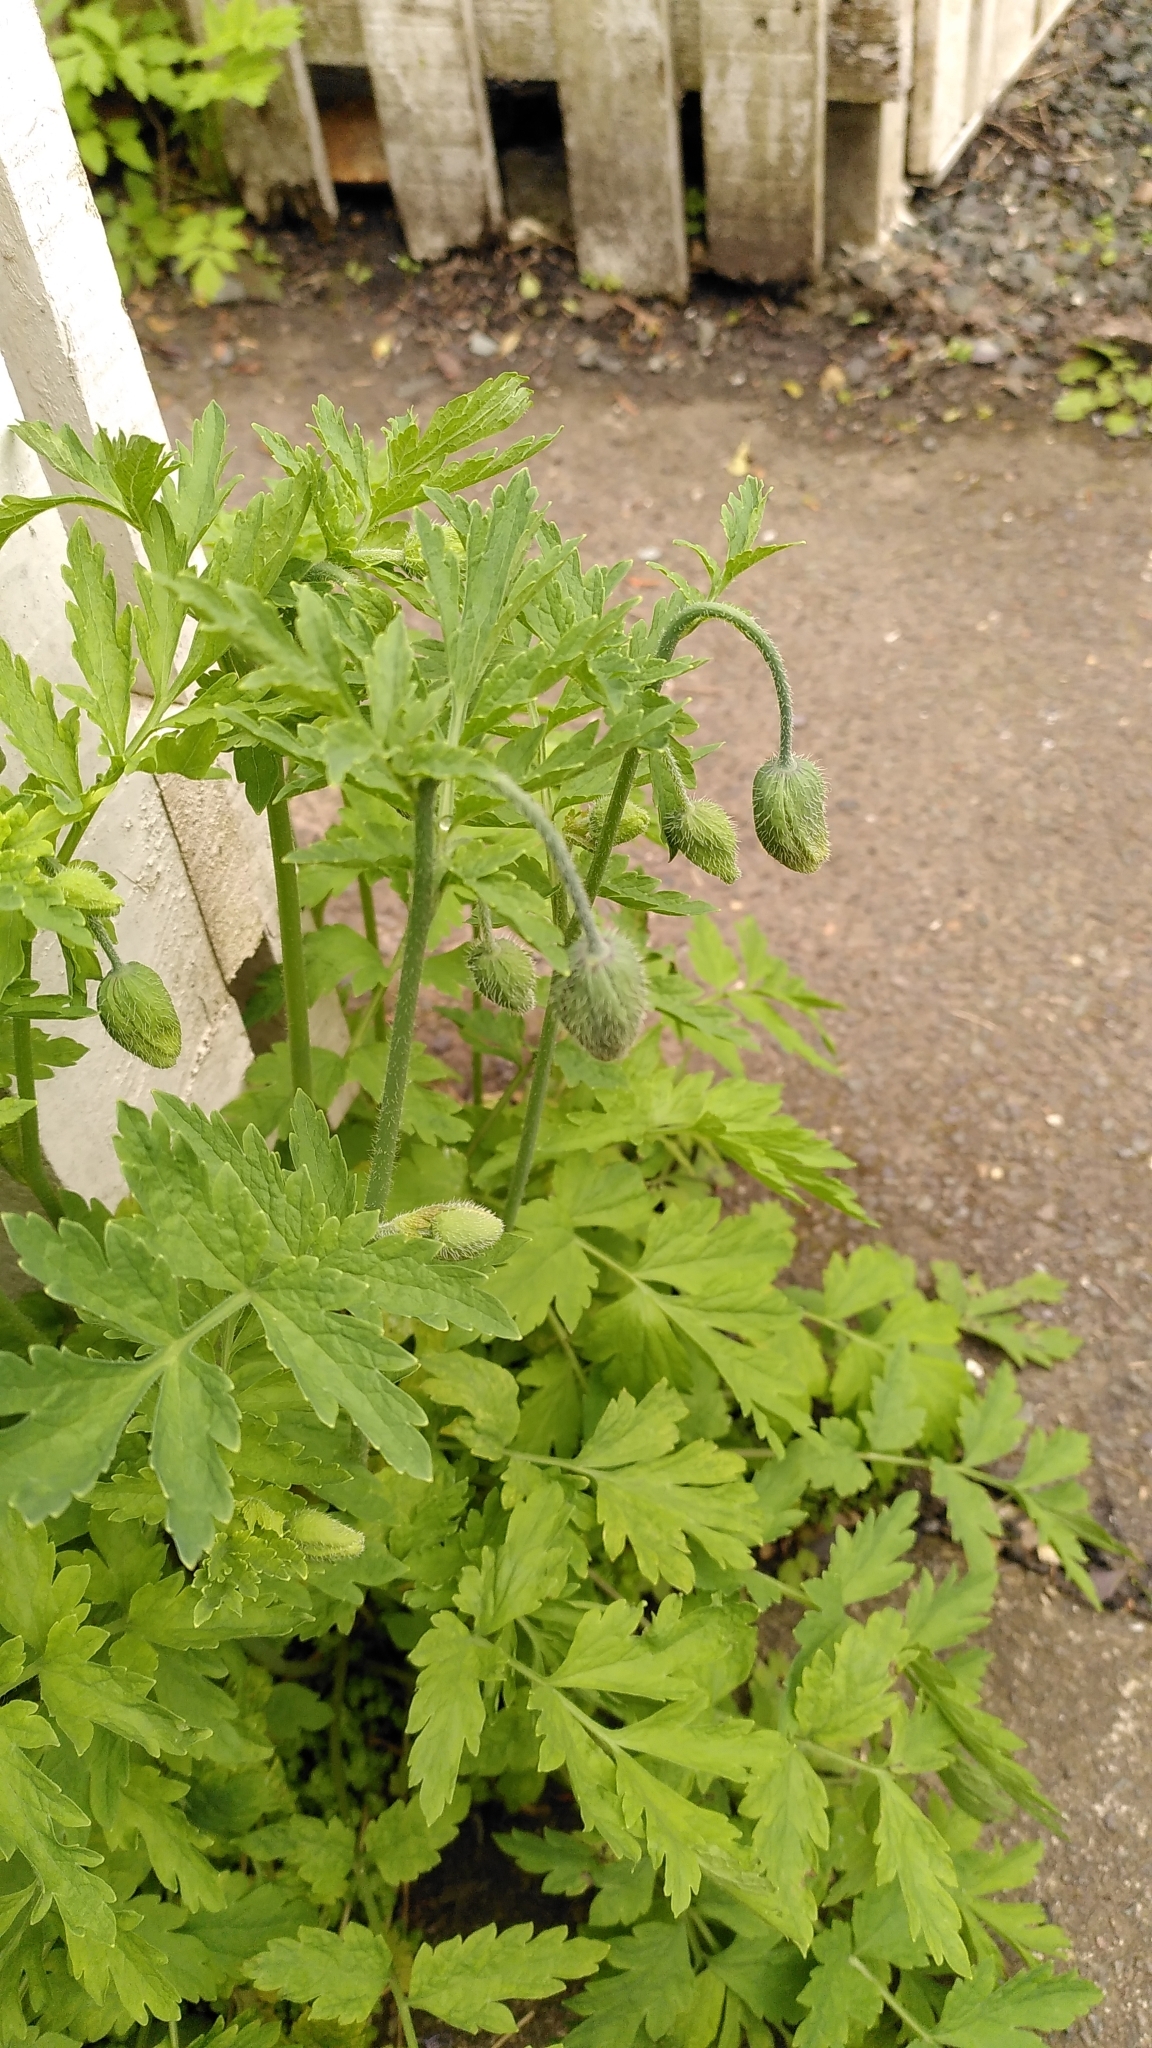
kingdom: Plantae
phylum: Tracheophyta
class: Magnoliopsida
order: Ranunculales
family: Papaveraceae
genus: Papaver
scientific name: Papaver cambricum
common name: Poppy
